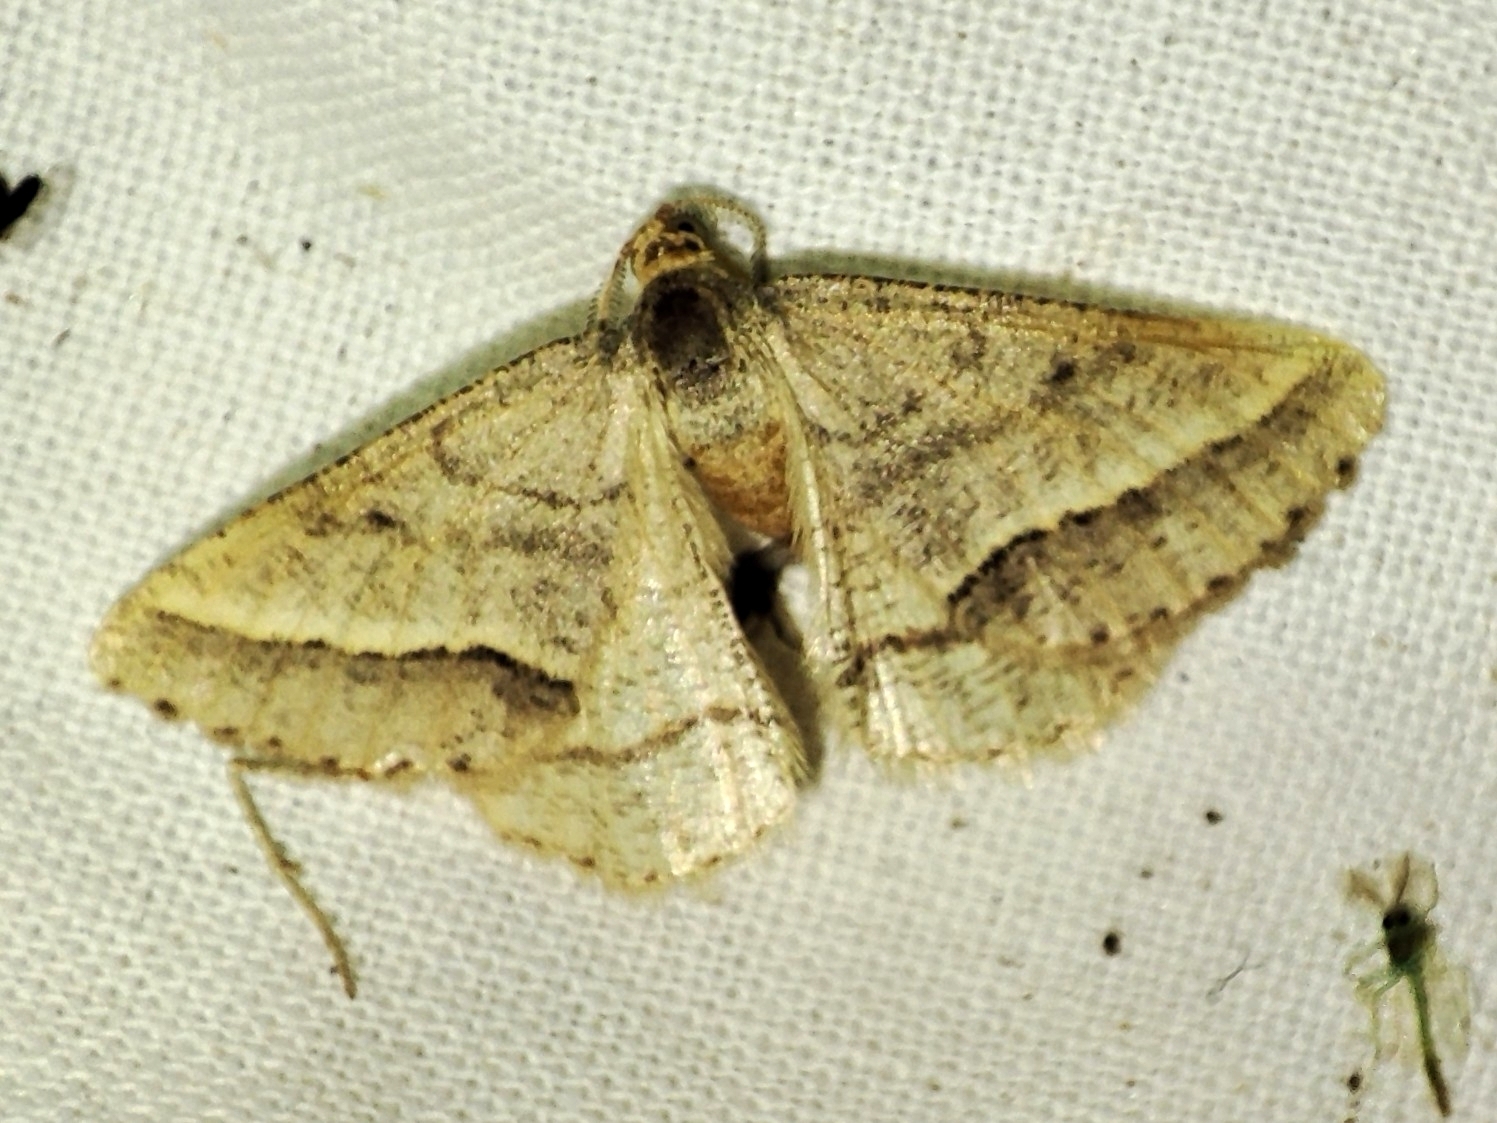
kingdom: Animalia
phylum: Arthropoda
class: Insecta
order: Lepidoptera
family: Geometridae
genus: Tephrina
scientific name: Tephrina arenacearia
